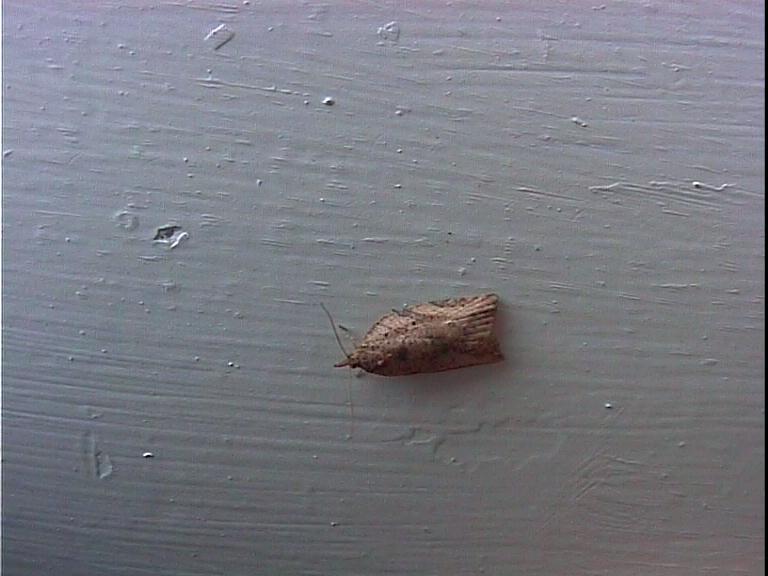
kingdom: Animalia
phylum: Arthropoda
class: Insecta
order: Lepidoptera
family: Tortricidae
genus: Epiphyas
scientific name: Epiphyas postvittana
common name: Light brown apple moth
